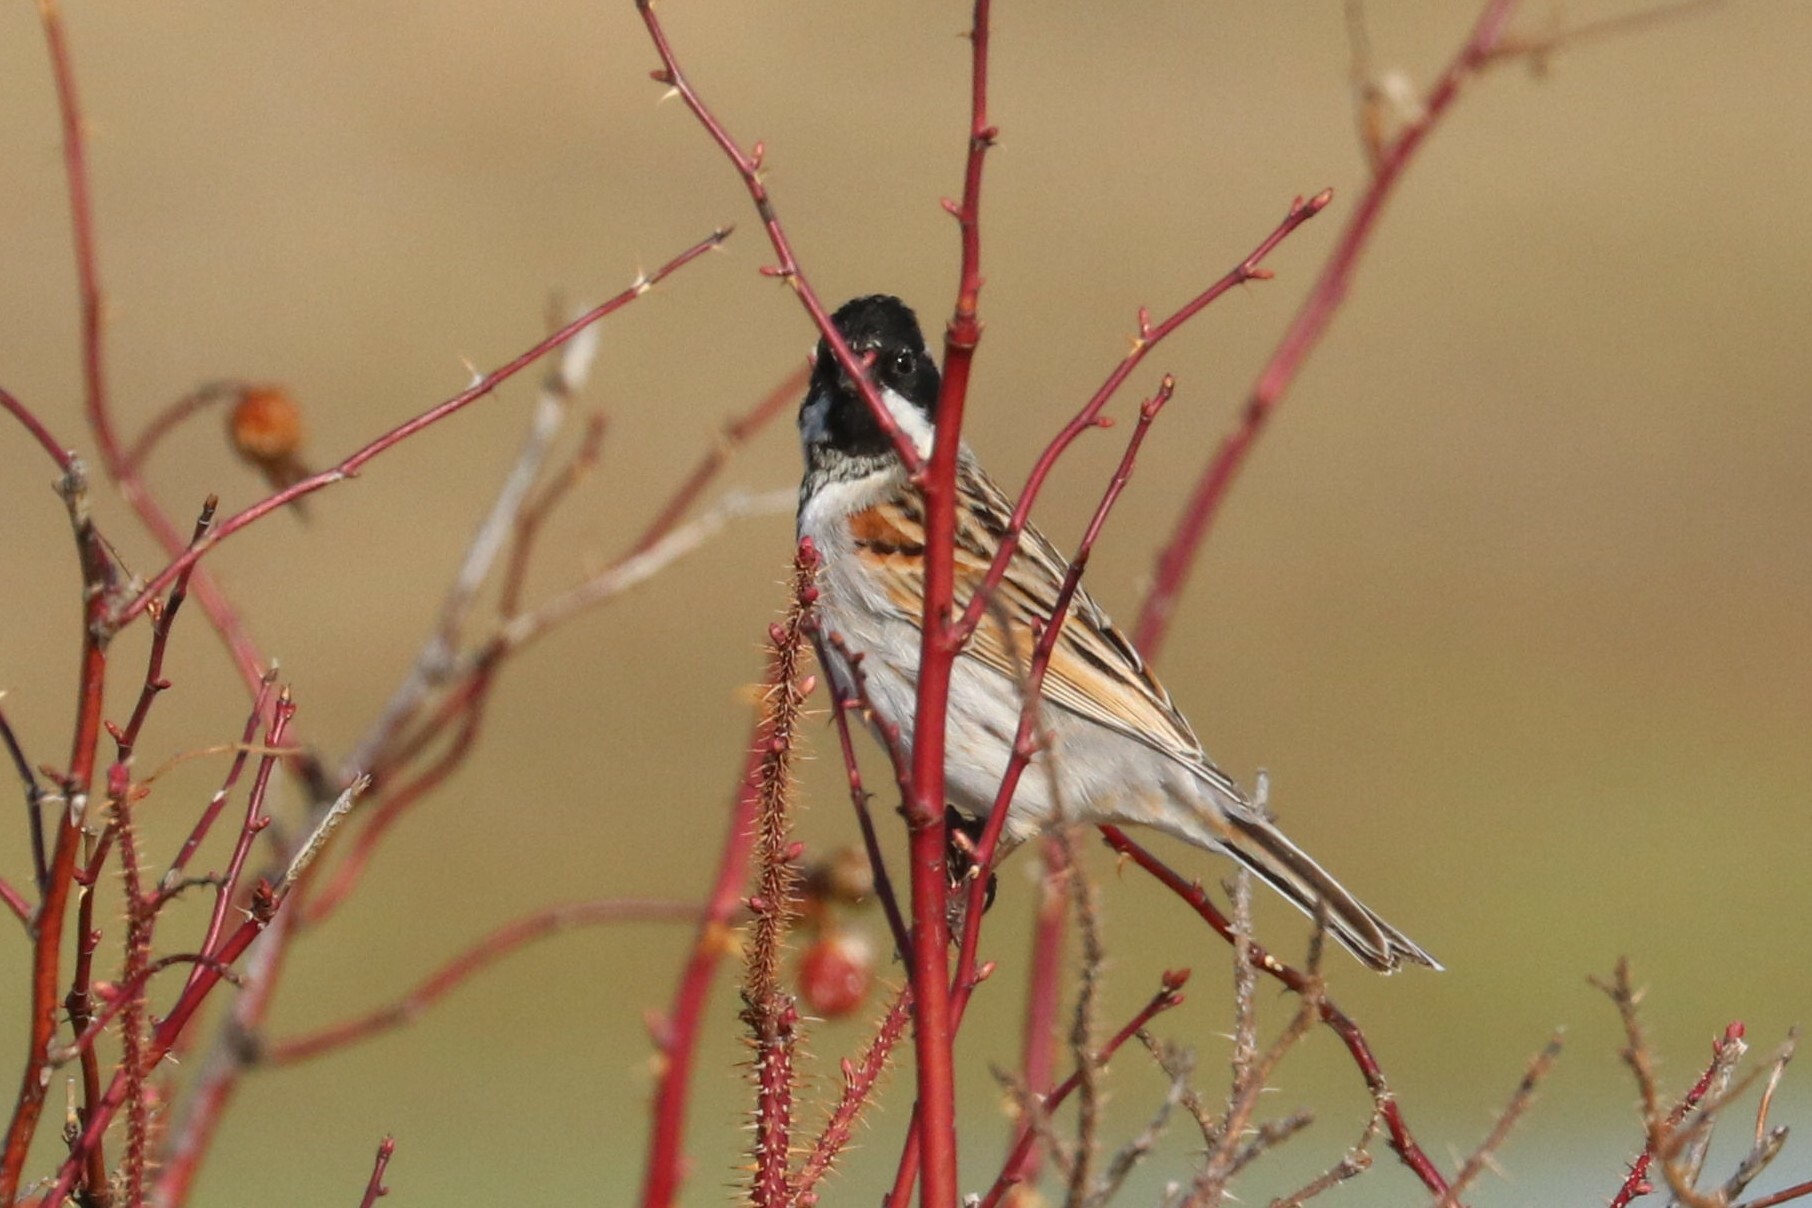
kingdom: Animalia
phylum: Chordata
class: Aves
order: Passeriformes
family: Emberizidae
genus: Emberiza
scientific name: Emberiza schoeniclus
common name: Reed bunting
